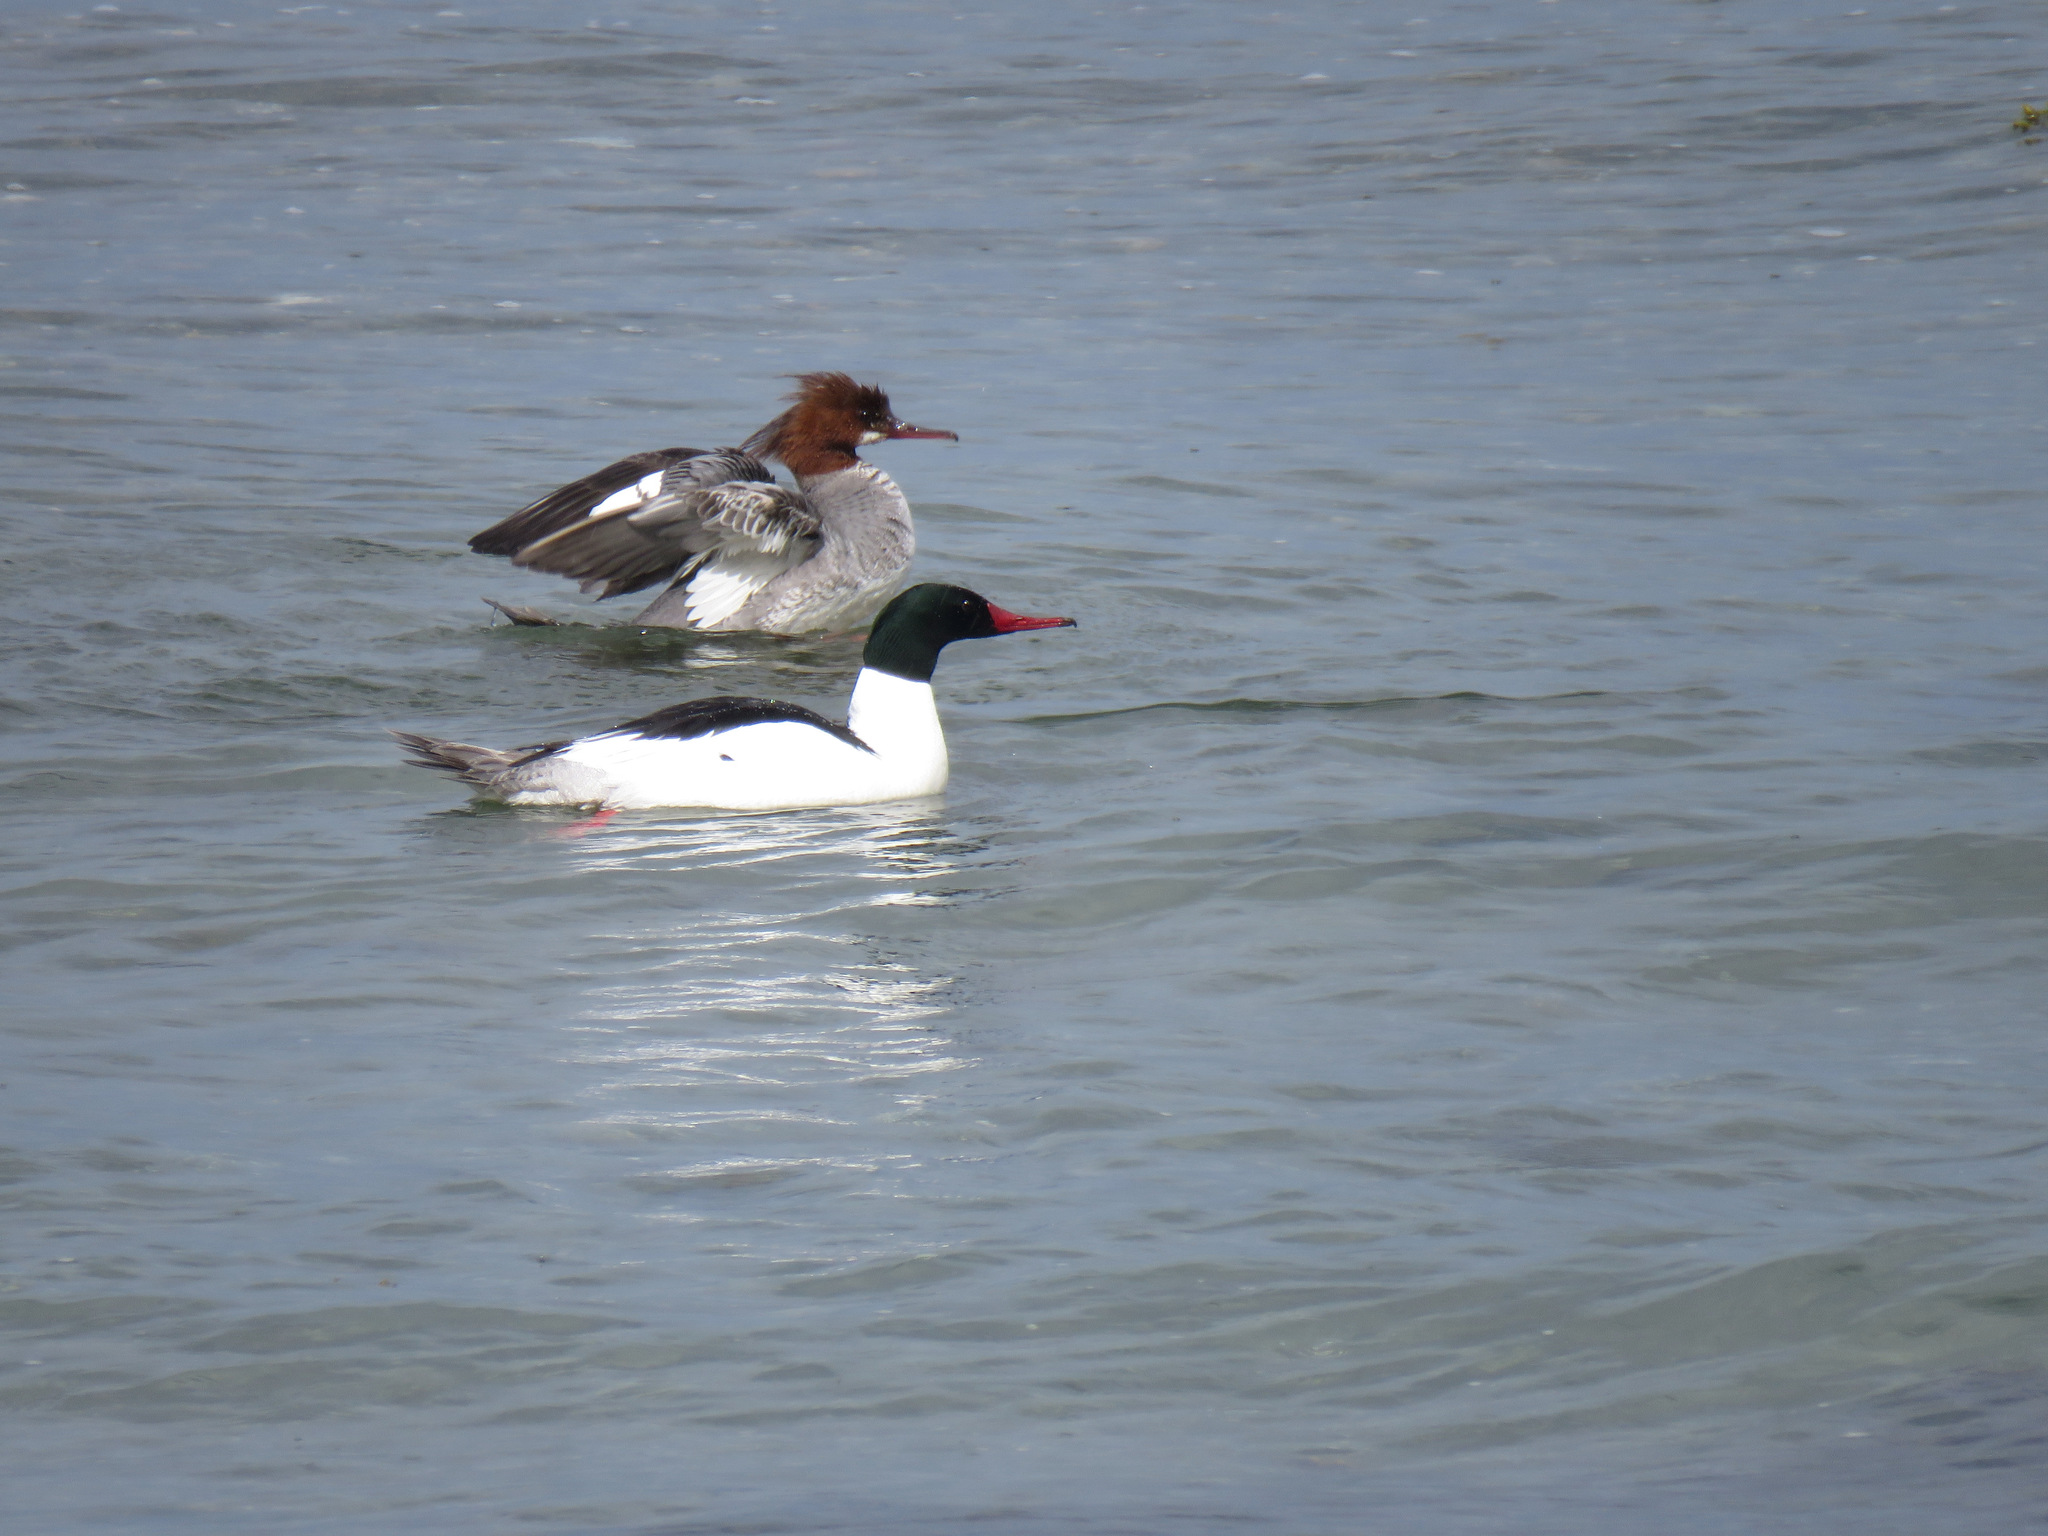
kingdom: Animalia
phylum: Chordata
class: Aves
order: Anseriformes
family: Anatidae
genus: Mergus
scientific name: Mergus merganser
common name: Common merganser
